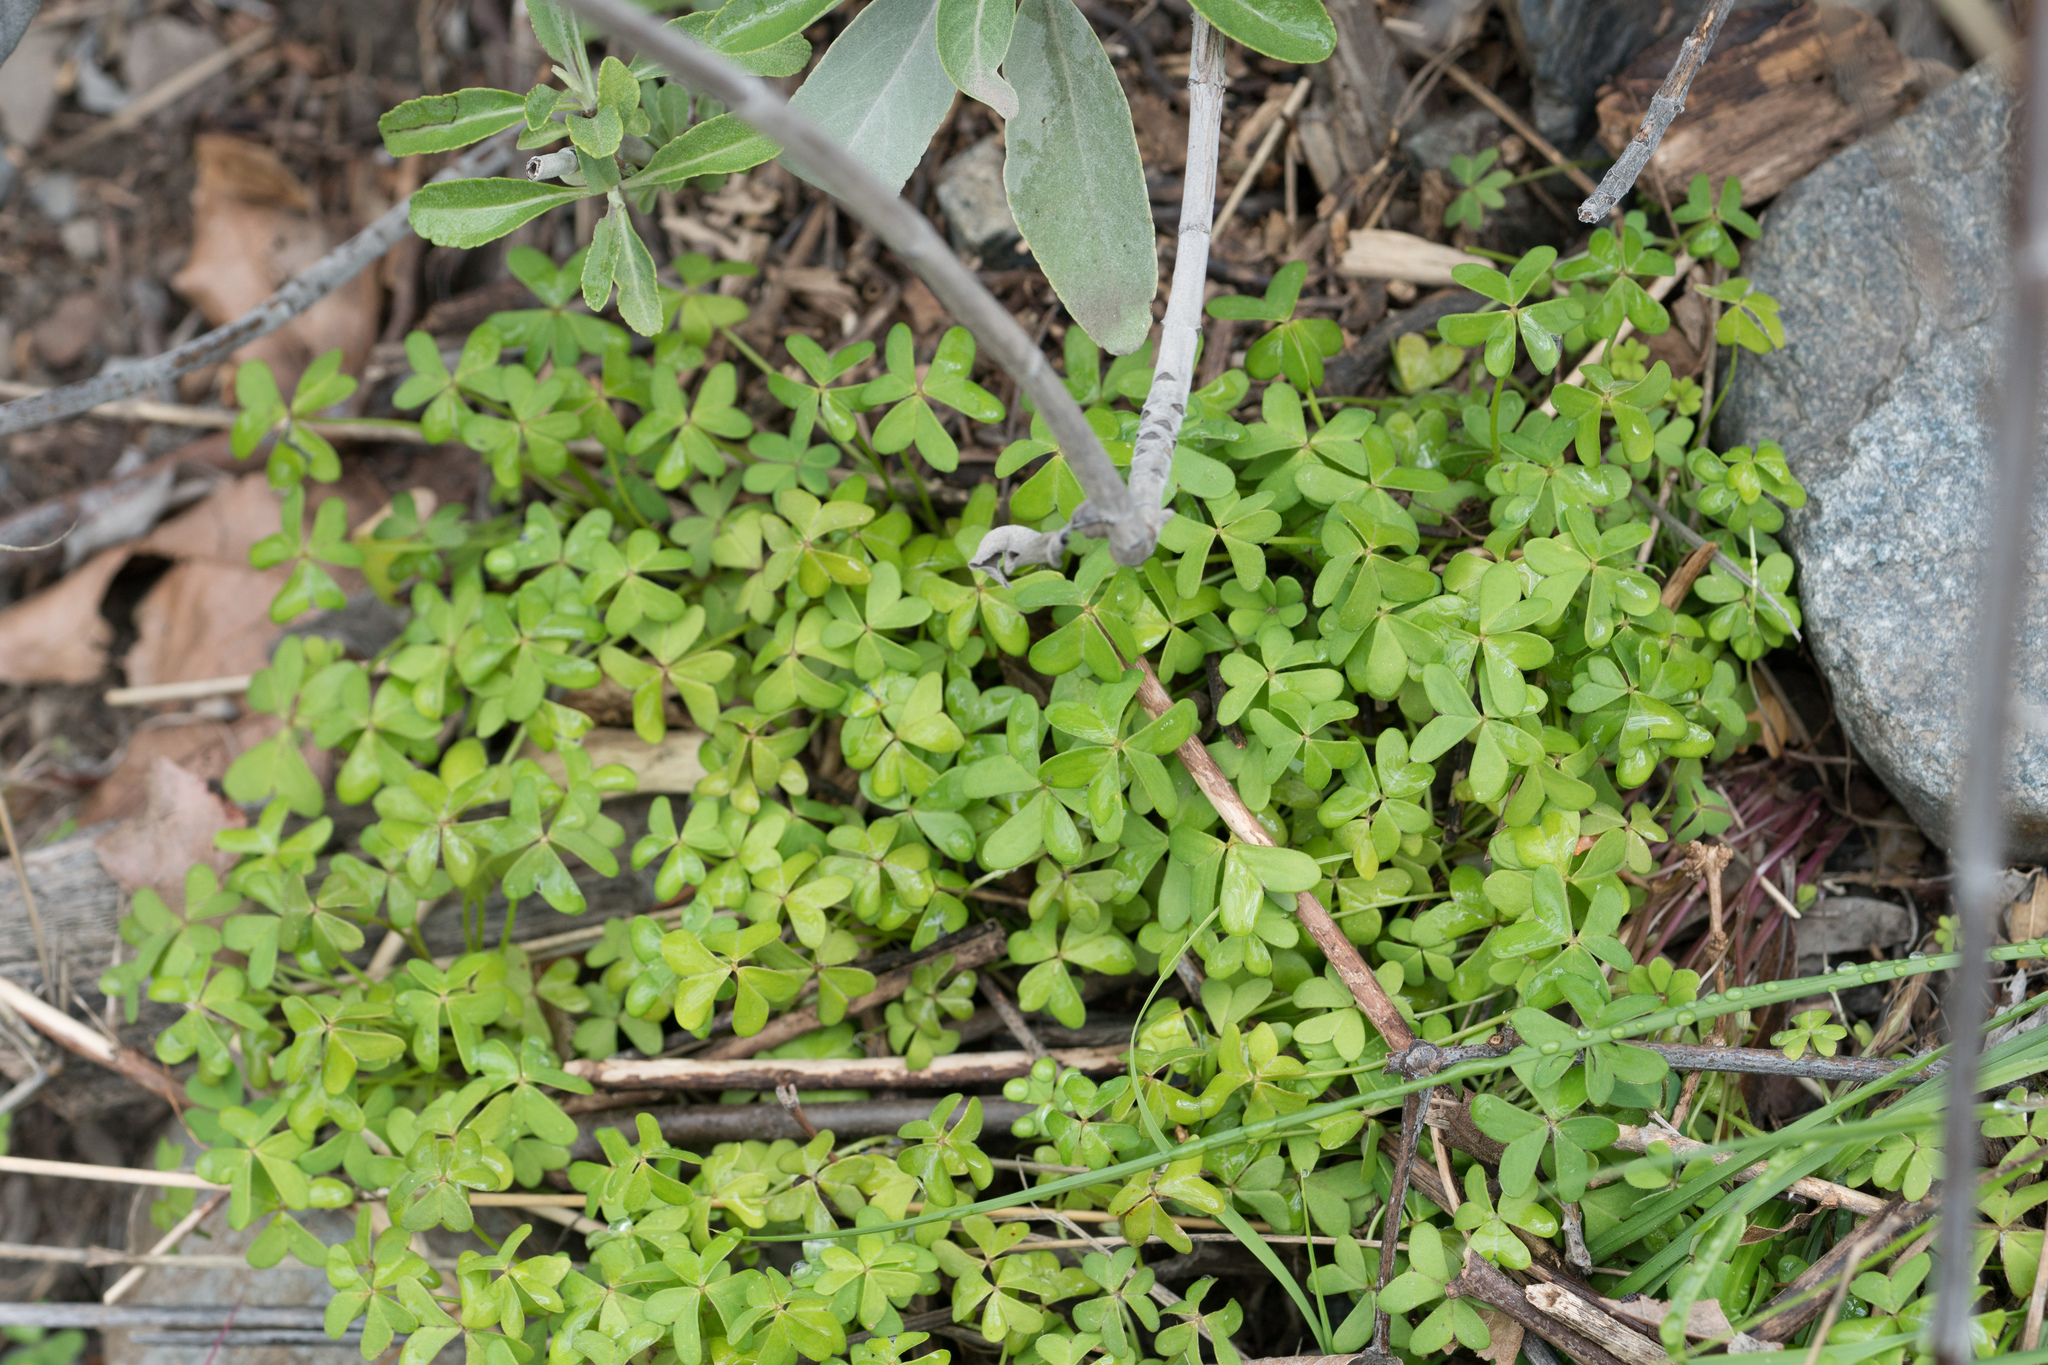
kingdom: Plantae
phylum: Tracheophyta
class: Magnoliopsida
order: Oxalidales
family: Oxalidaceae
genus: Oxalis
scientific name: Oxalis pes-caprae
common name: Bermuda-buttercup
